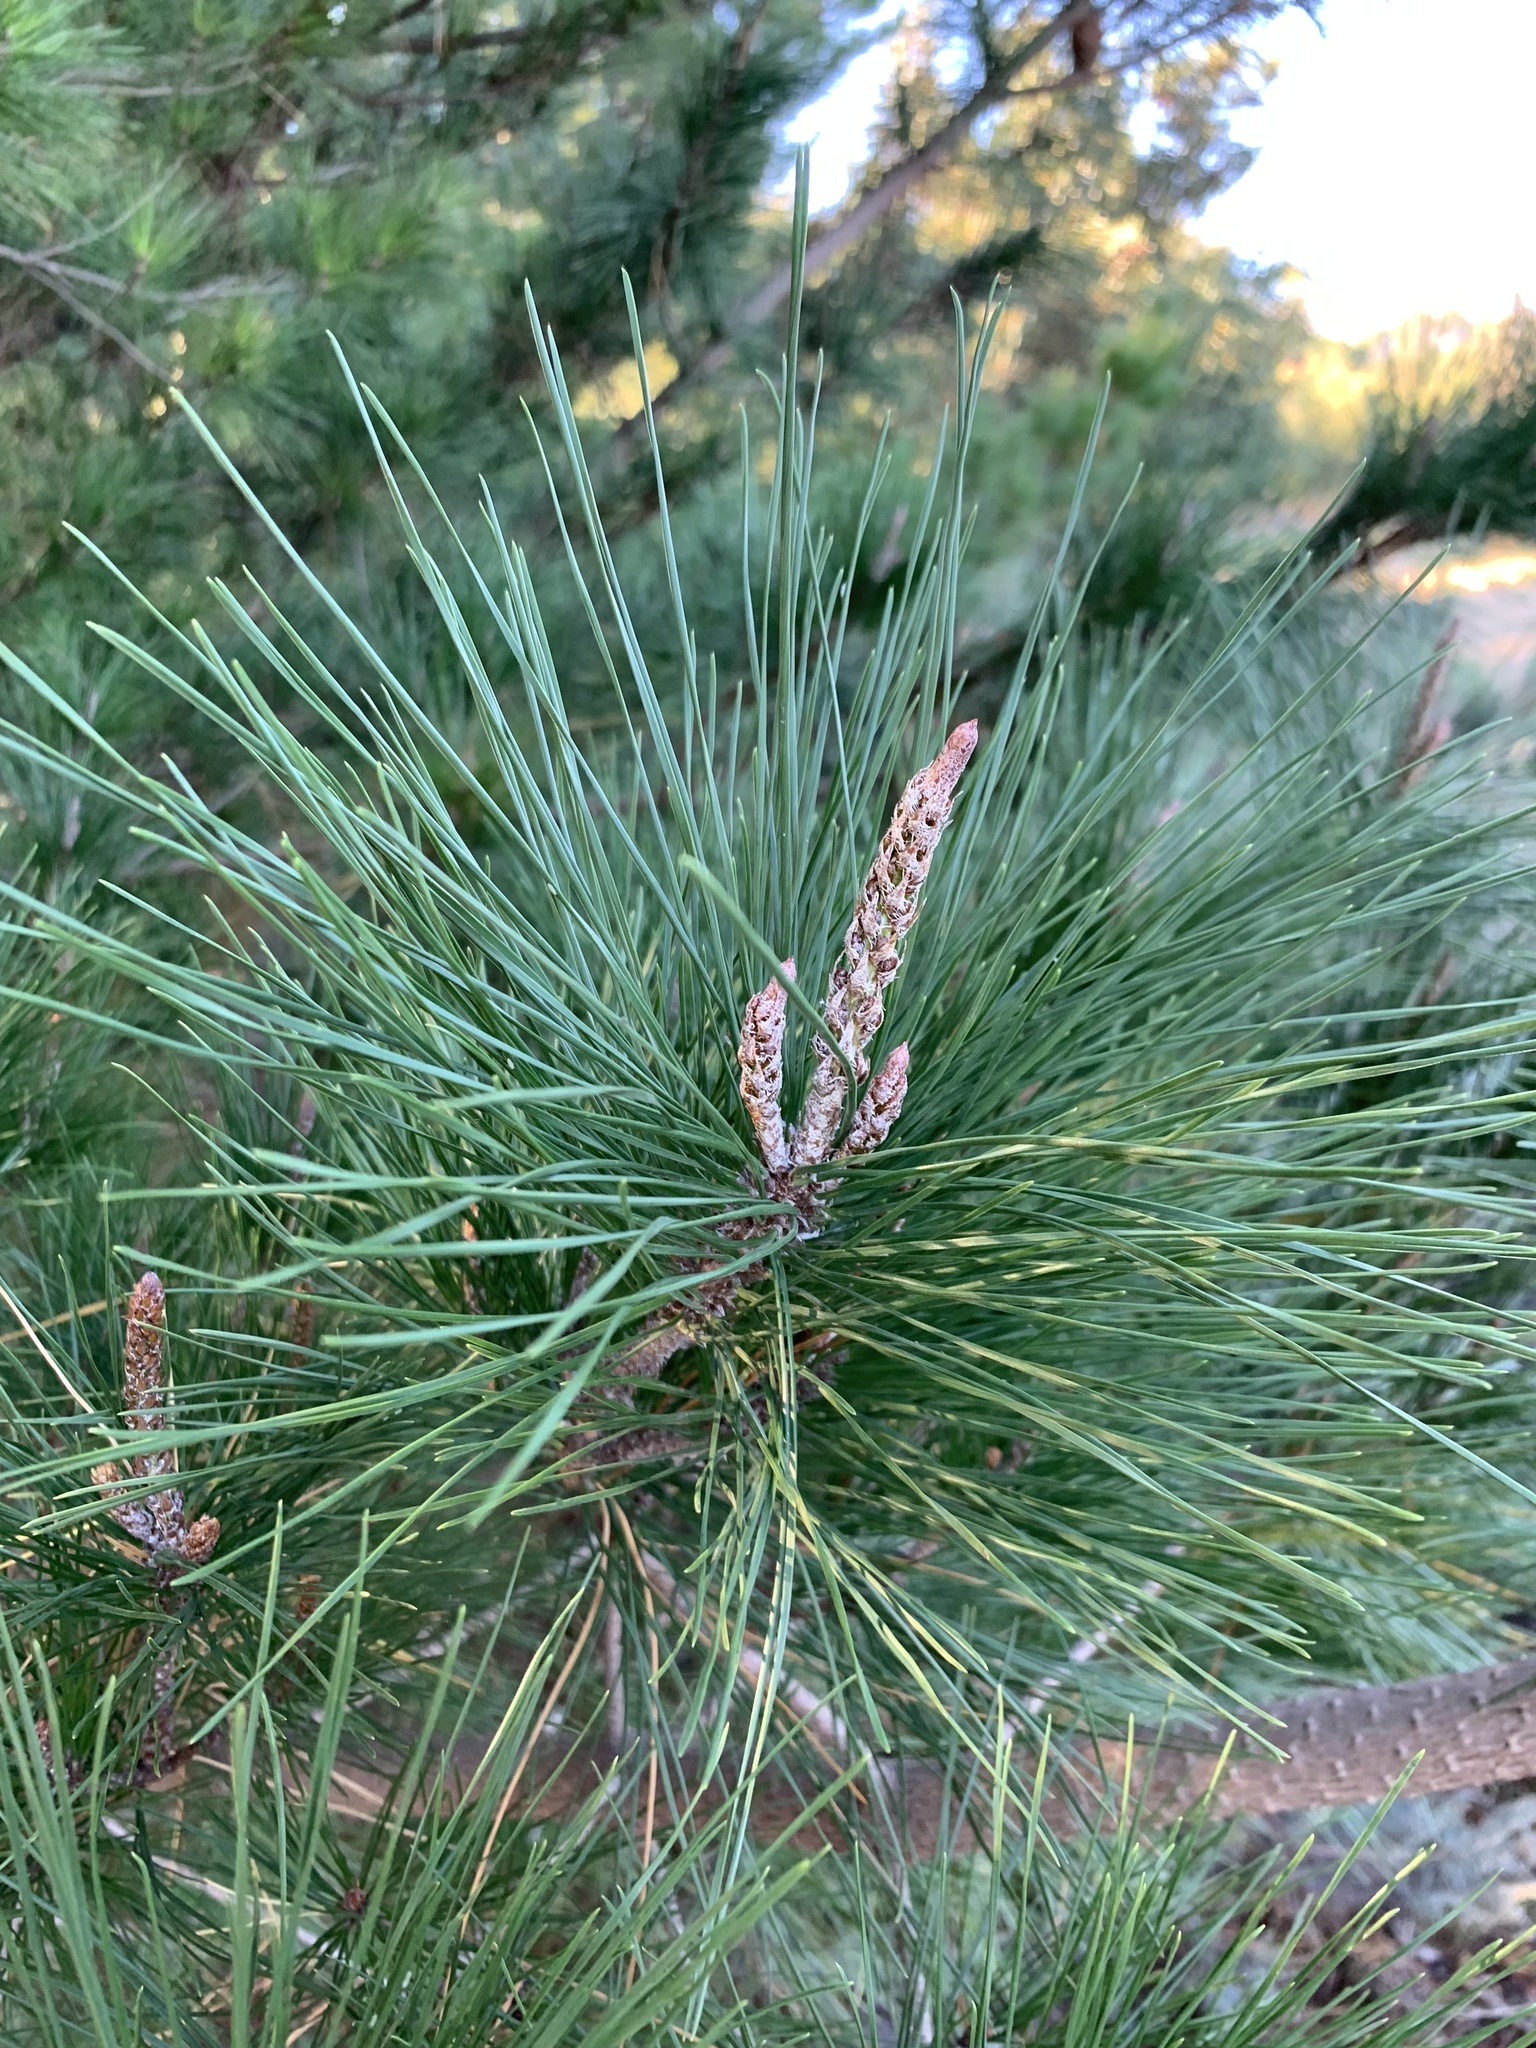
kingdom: Plantae
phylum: Tracheophyta
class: Pinopsida
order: Pinales
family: Pinaceae
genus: Pinus
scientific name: Pinus radiata
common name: Monterey pine
